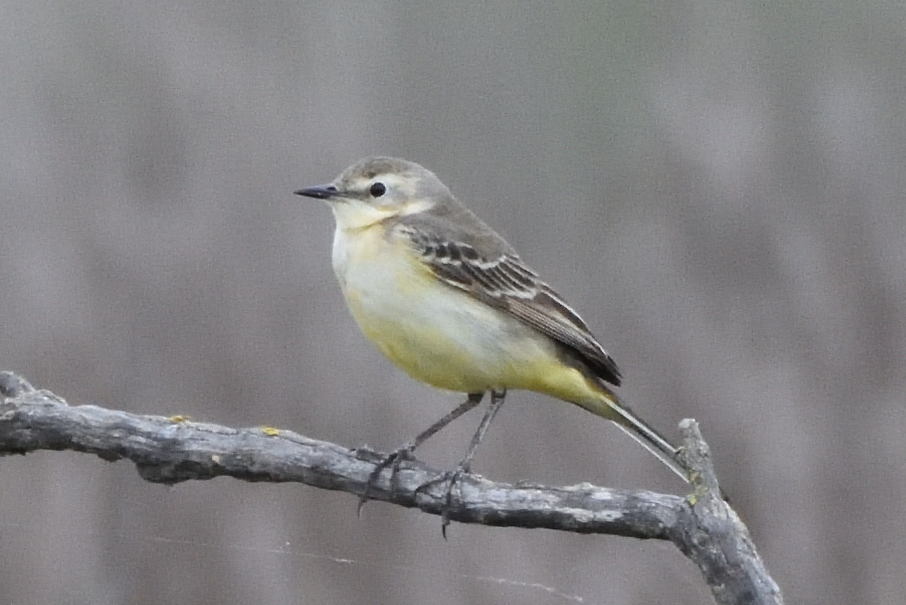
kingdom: Animalia
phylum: Chordata
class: Aves
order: Passeriformes
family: Motacillidae
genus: Motacilla
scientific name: Motacilla flava
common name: Western yellow wagtail
